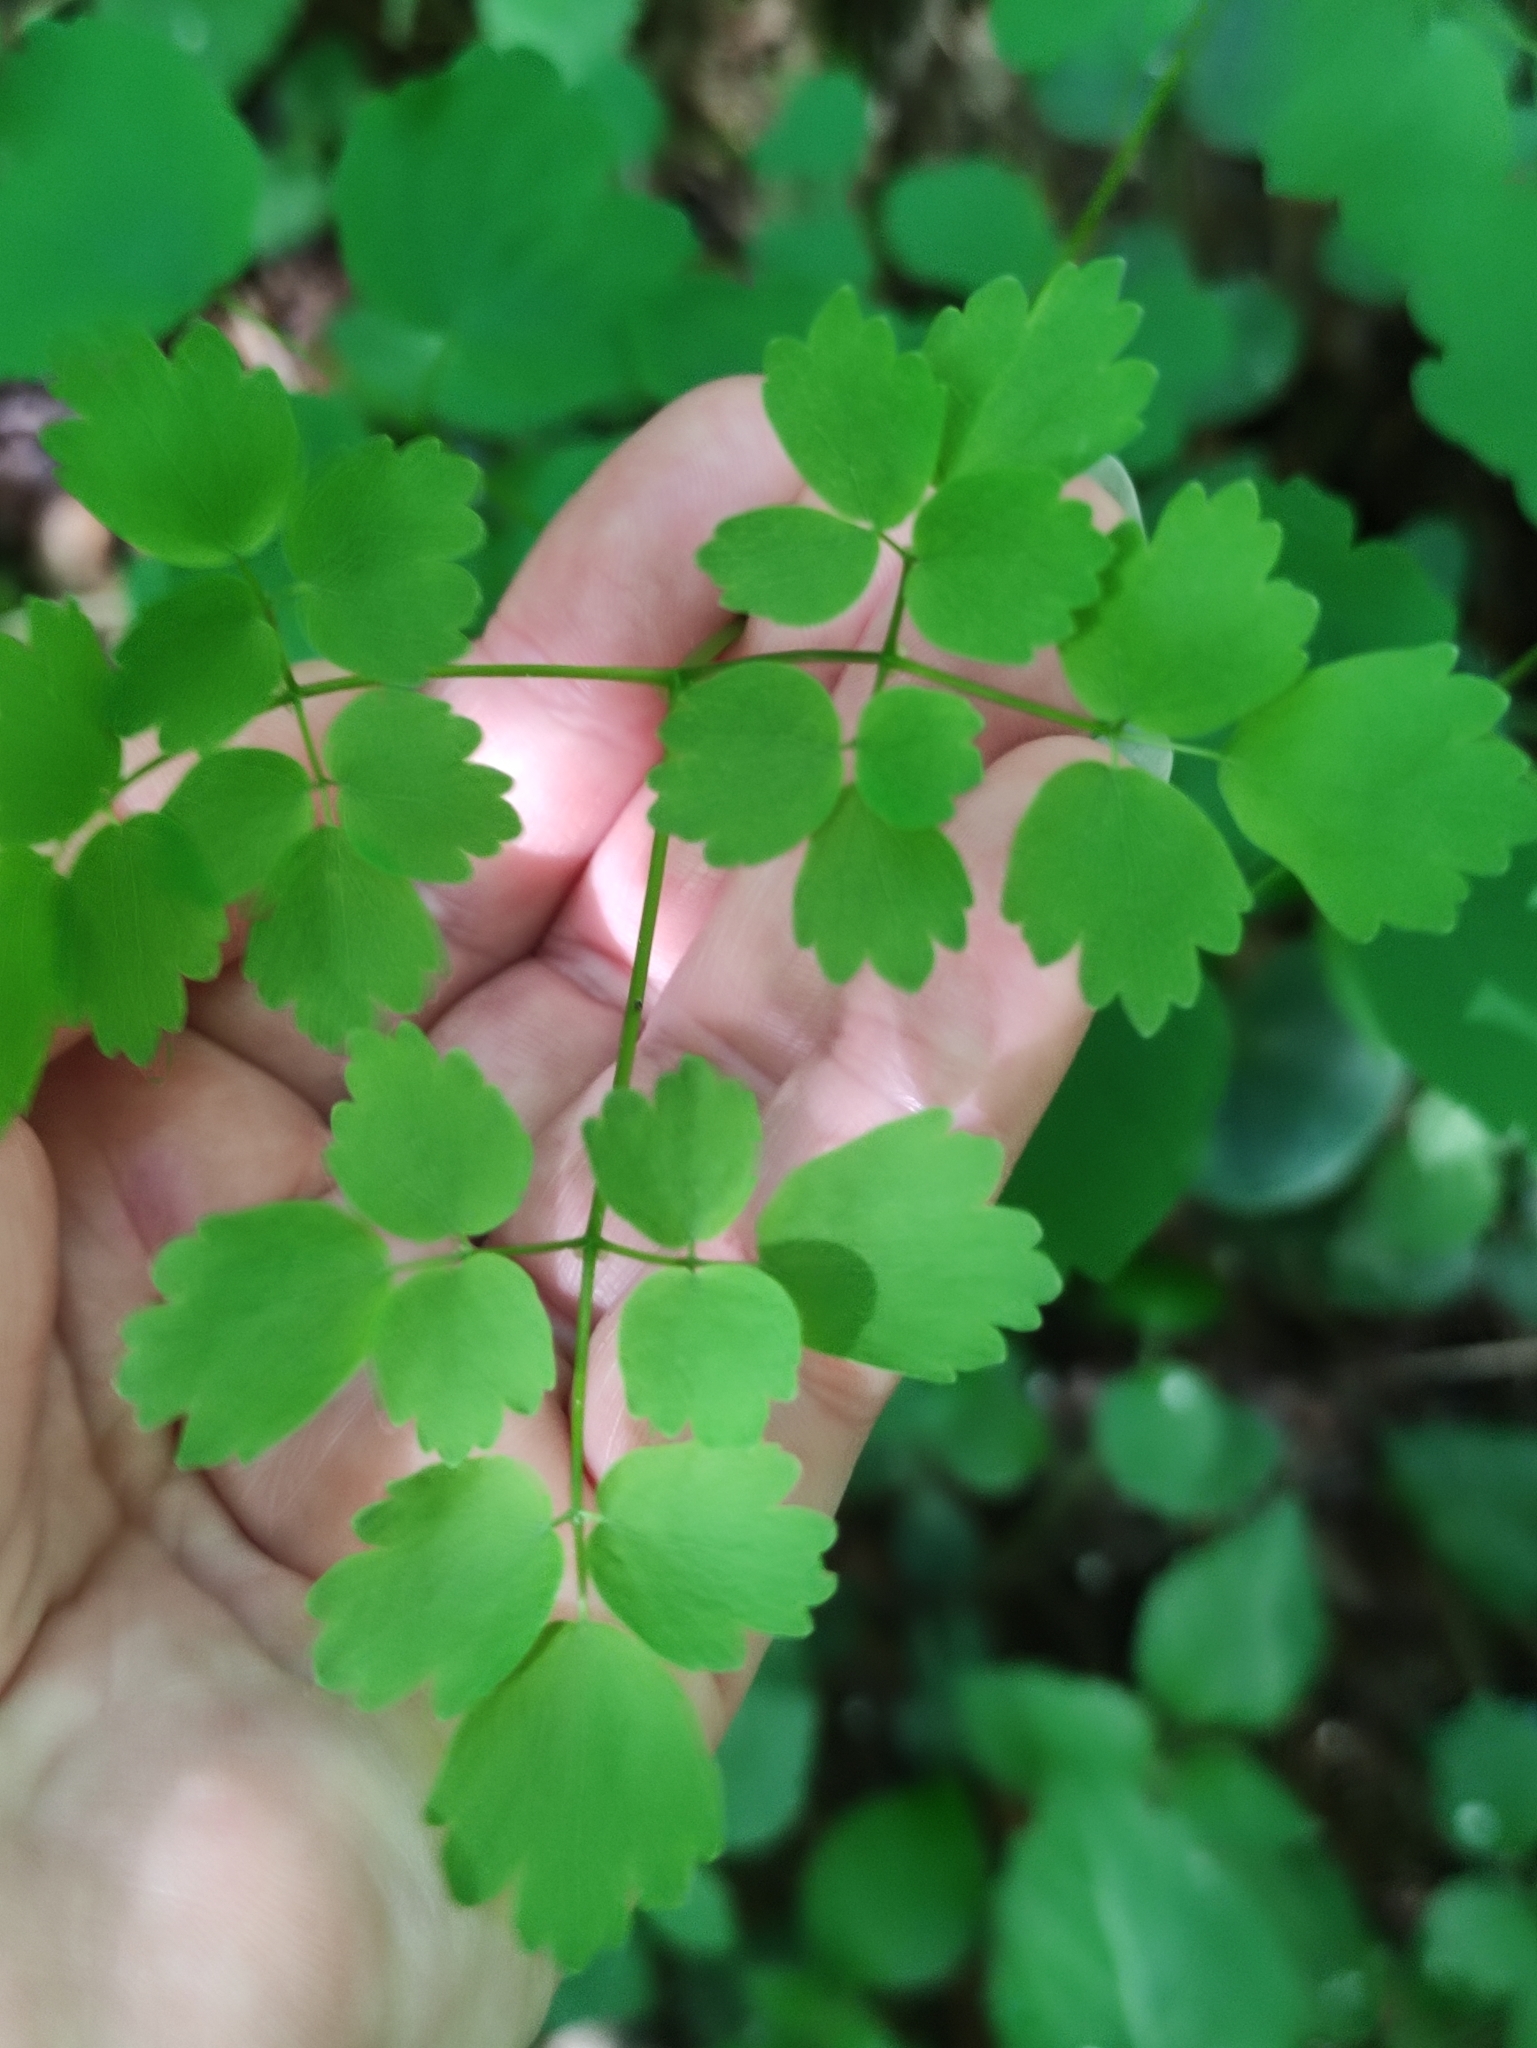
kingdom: Plantae
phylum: Tracheophyta
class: Magnoliopsida
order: Ranunculales
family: Ranunculaceae
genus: Thalictrum
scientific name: Thalictrum aquilegiifolium
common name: French meadow-rue
